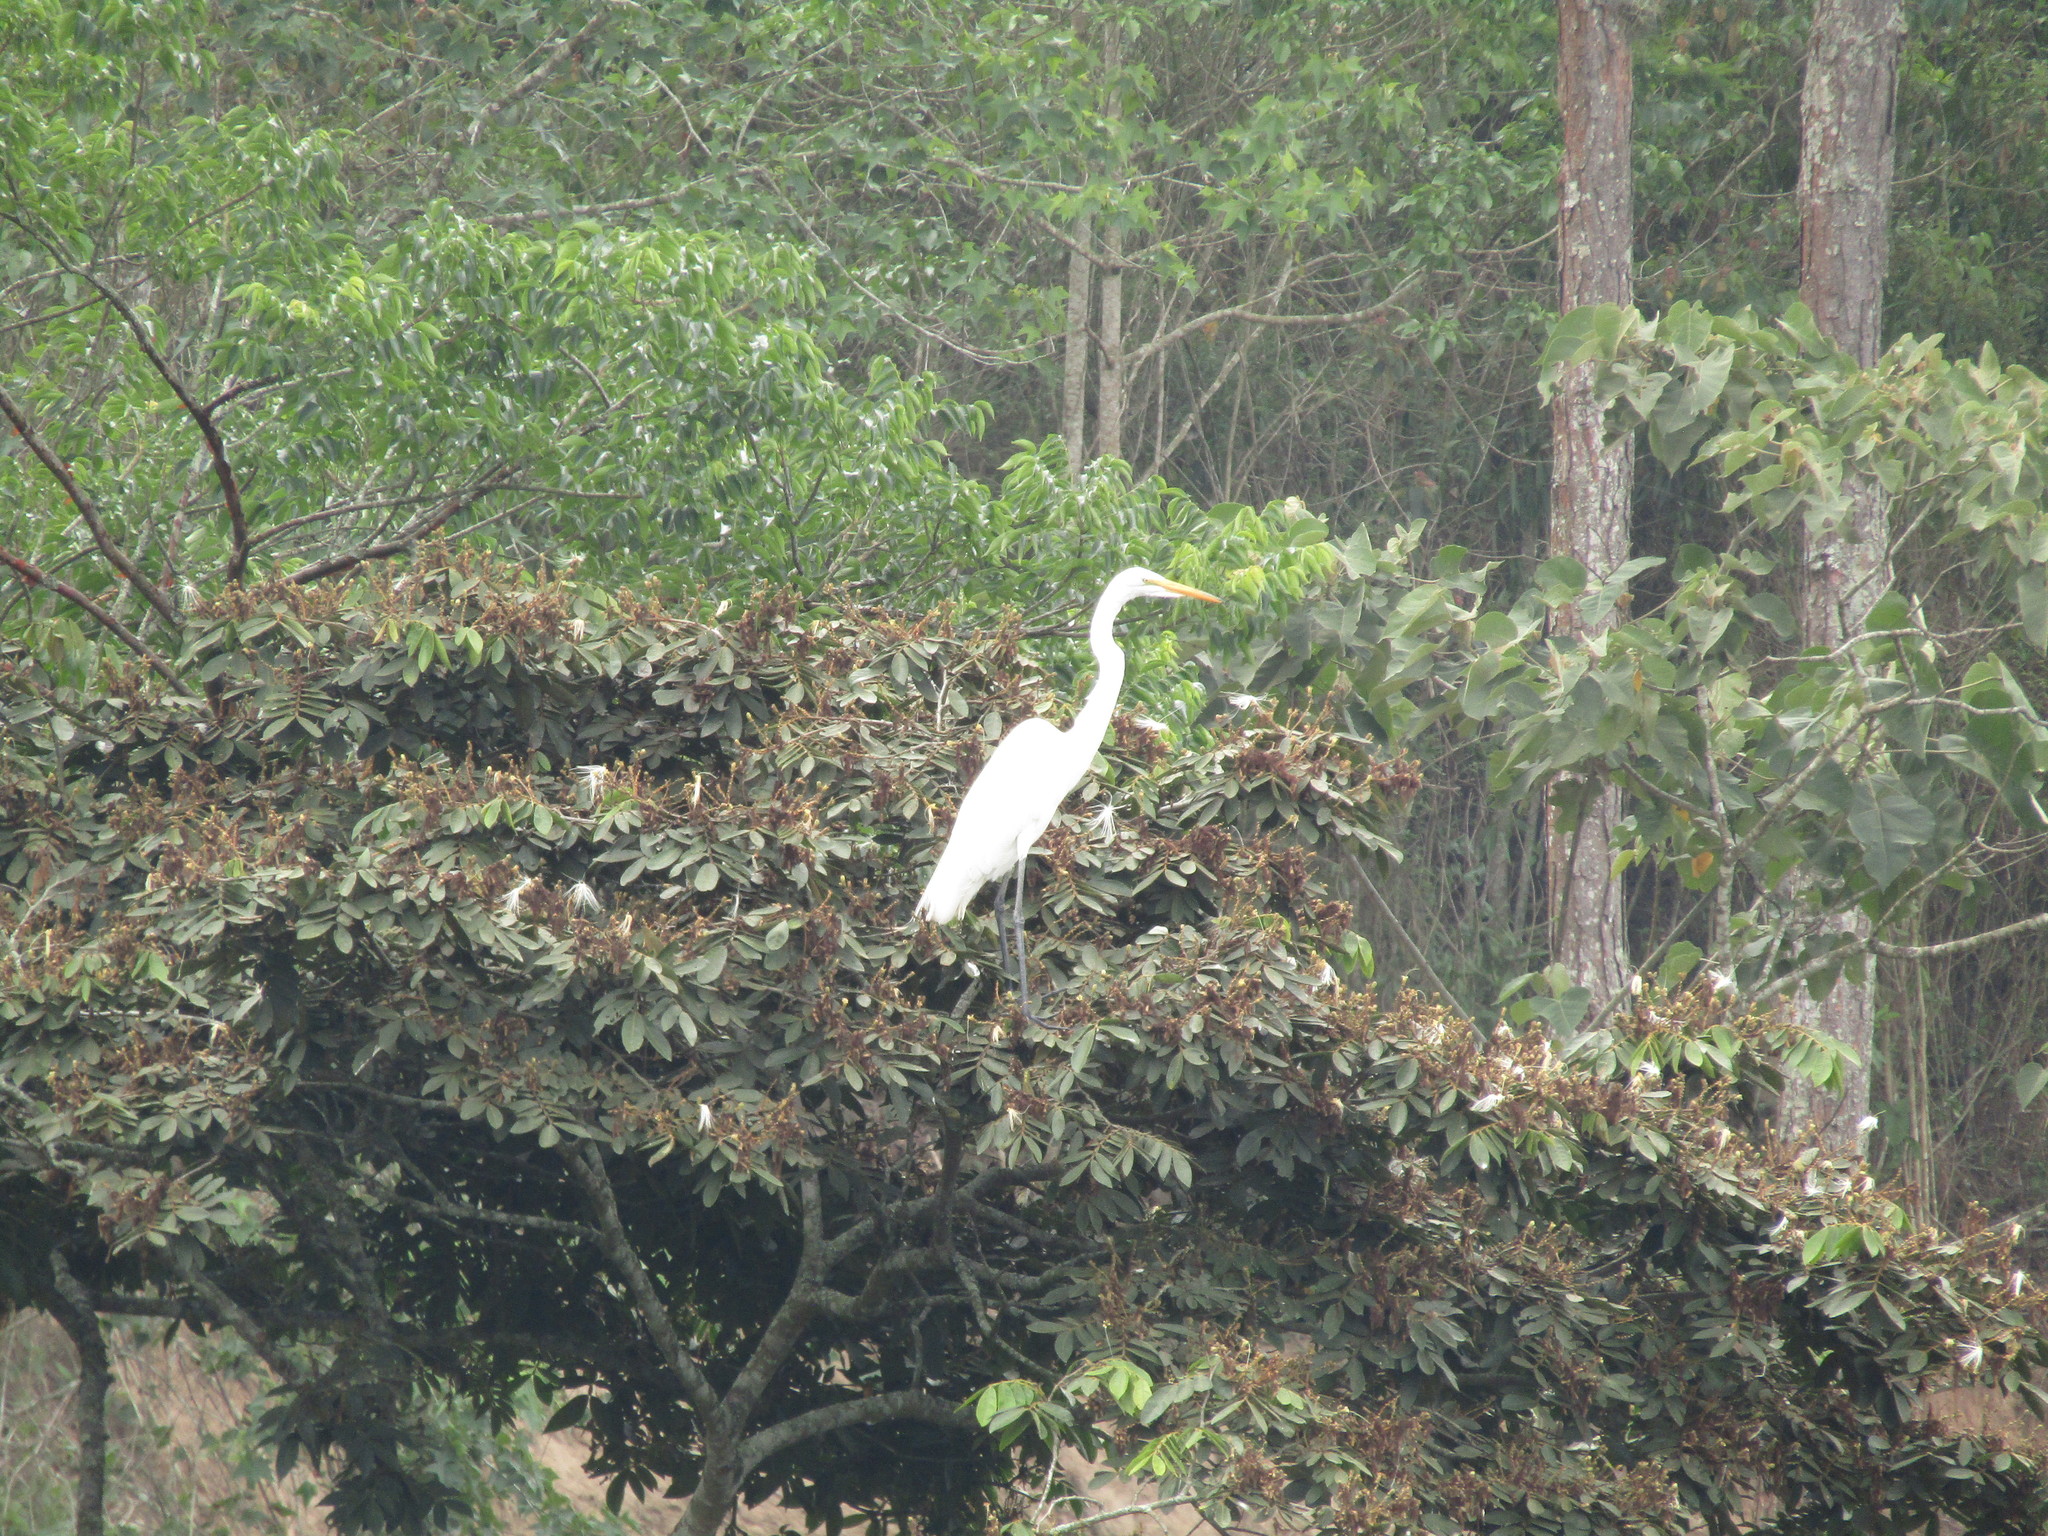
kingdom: Animalia
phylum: Chordata
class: Aves
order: Pelecaniformes
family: Ardeidae
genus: Ardea
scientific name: Ardea alba
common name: Great egret
